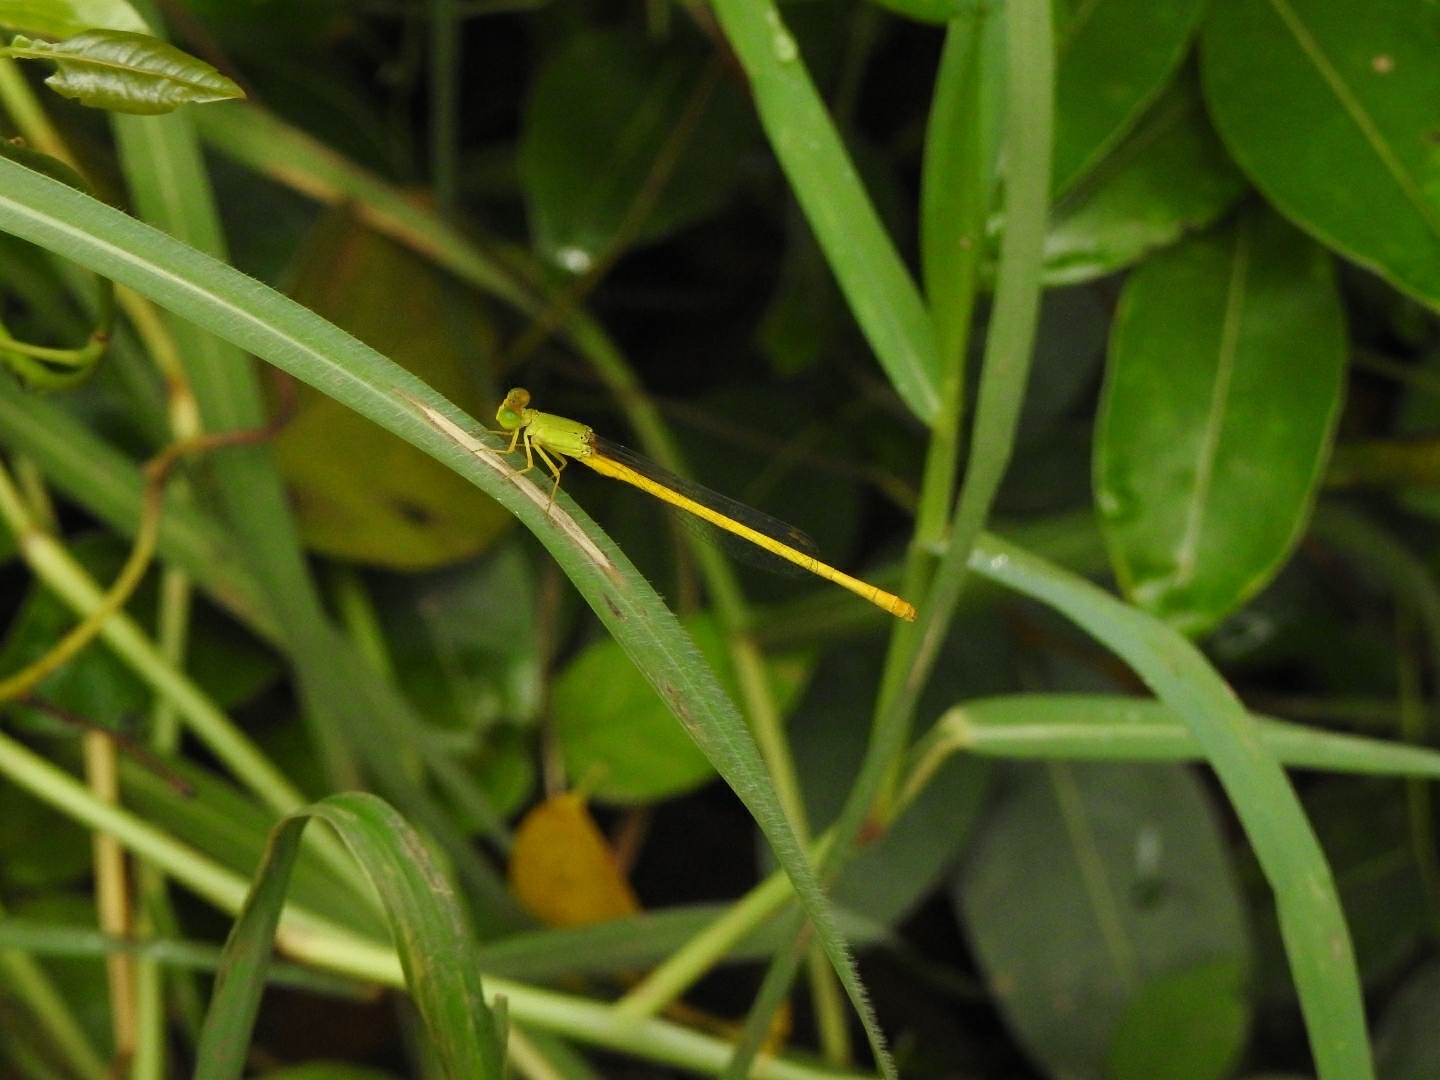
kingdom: Animalia
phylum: Arthropoda
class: Insecta
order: Odonata
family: Coenagrionidae
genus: Ceriagrion
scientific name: Ceriagrion coromandelianum
